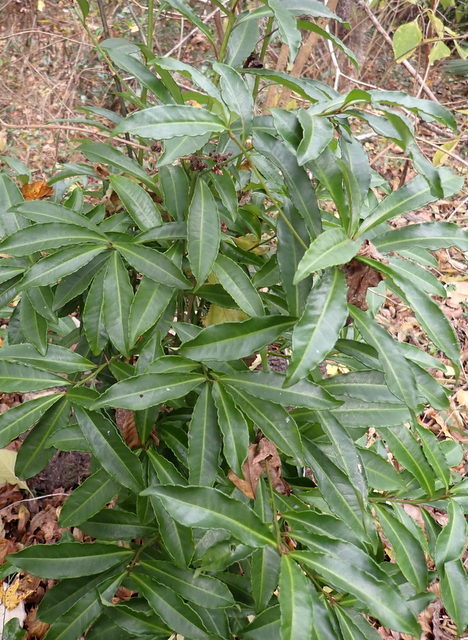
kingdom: Plantae
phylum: Tracheophyta
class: Magnoliopsida
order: Ericales
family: Primulaceae
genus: Ardisia
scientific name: Ardisia crenata
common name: Hen's eyes
